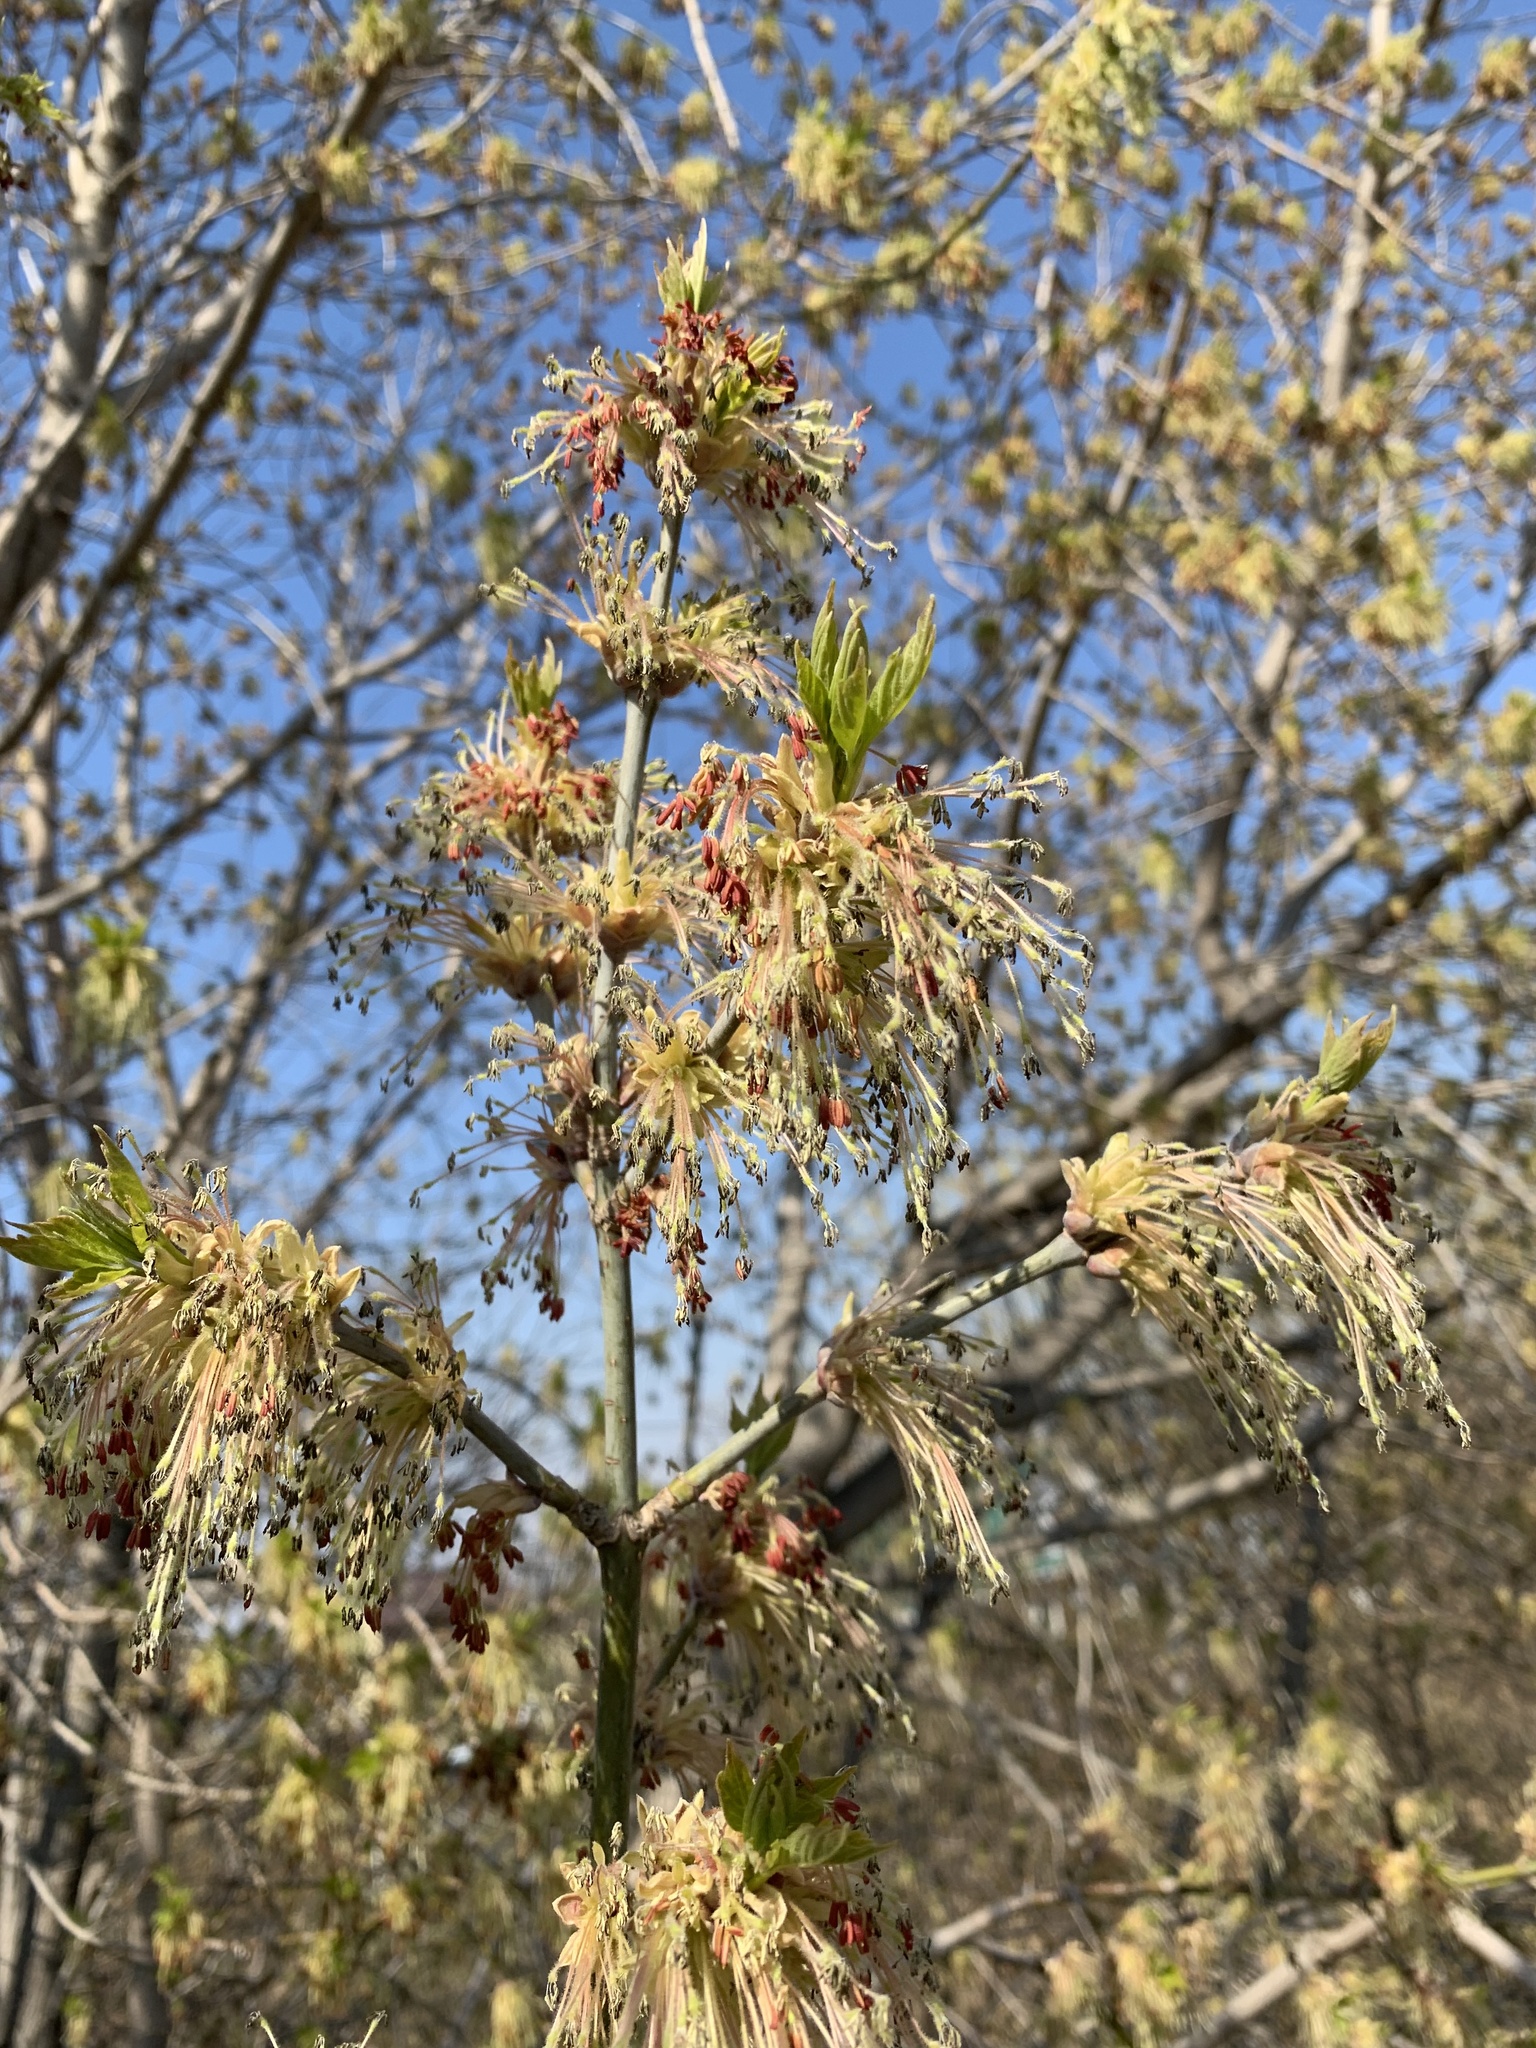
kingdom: Plantae
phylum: Tracheophyta
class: Magnoliopsida
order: Sapindales
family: Sapindaceae
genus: Acer
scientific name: Acer negundo
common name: Ashleaf maple
